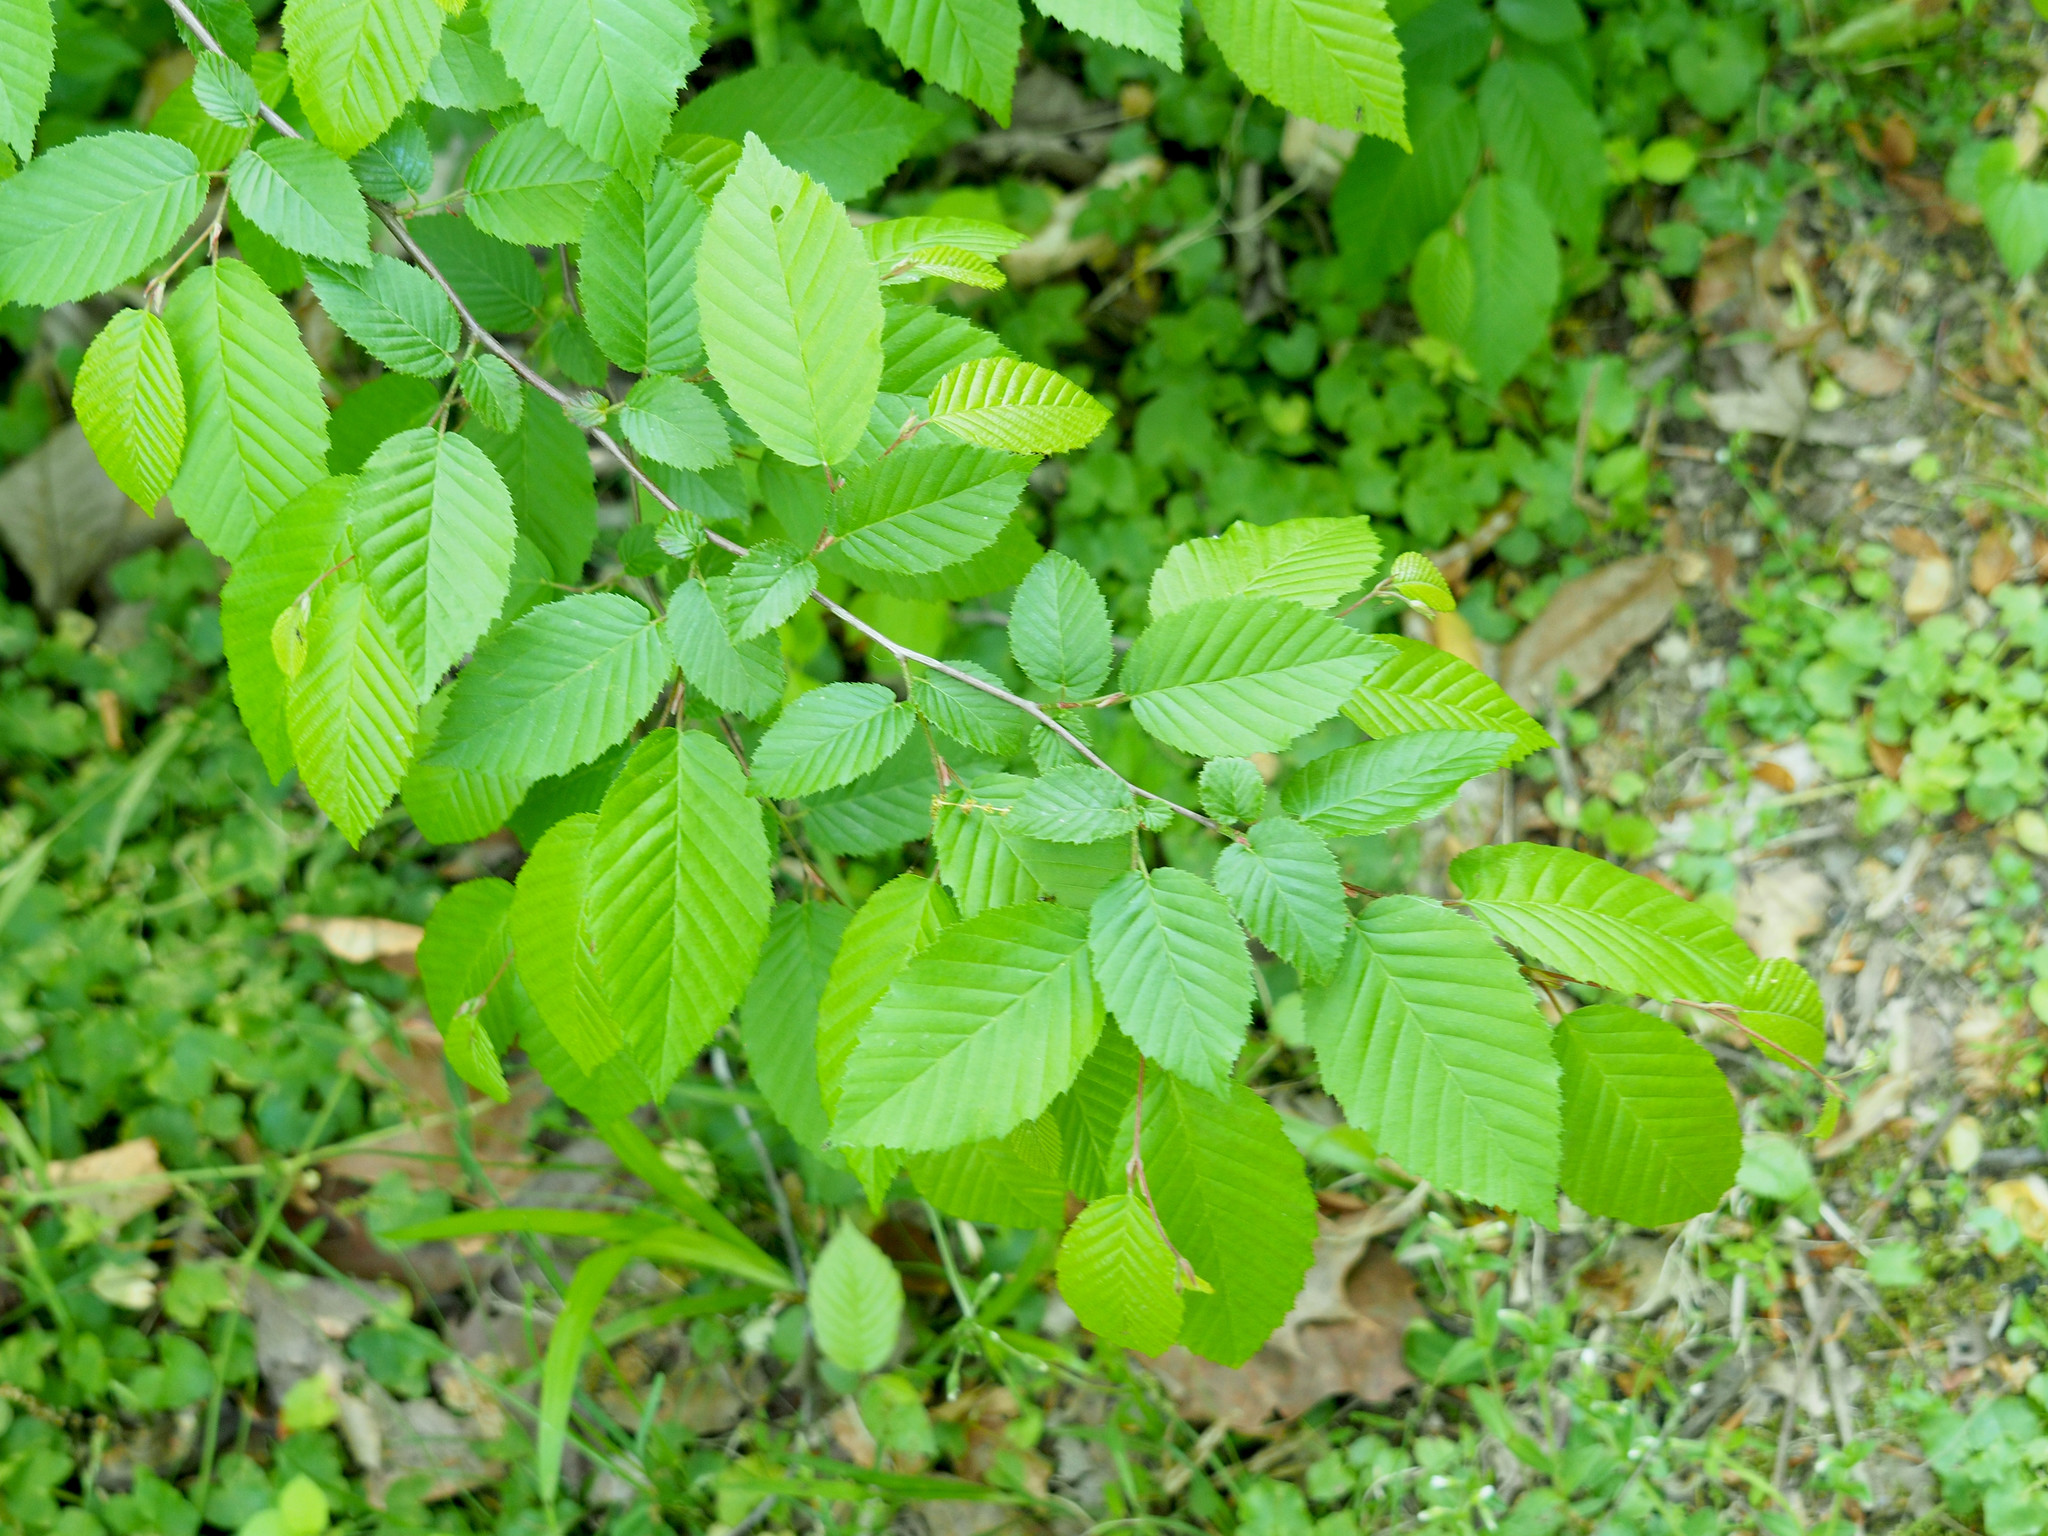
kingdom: Plantae
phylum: Tracheophyta
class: Magnoliopsida
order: Fagales
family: Betulaceae
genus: Carpinus
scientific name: Carpinus caroliniana
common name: American hornbeam
